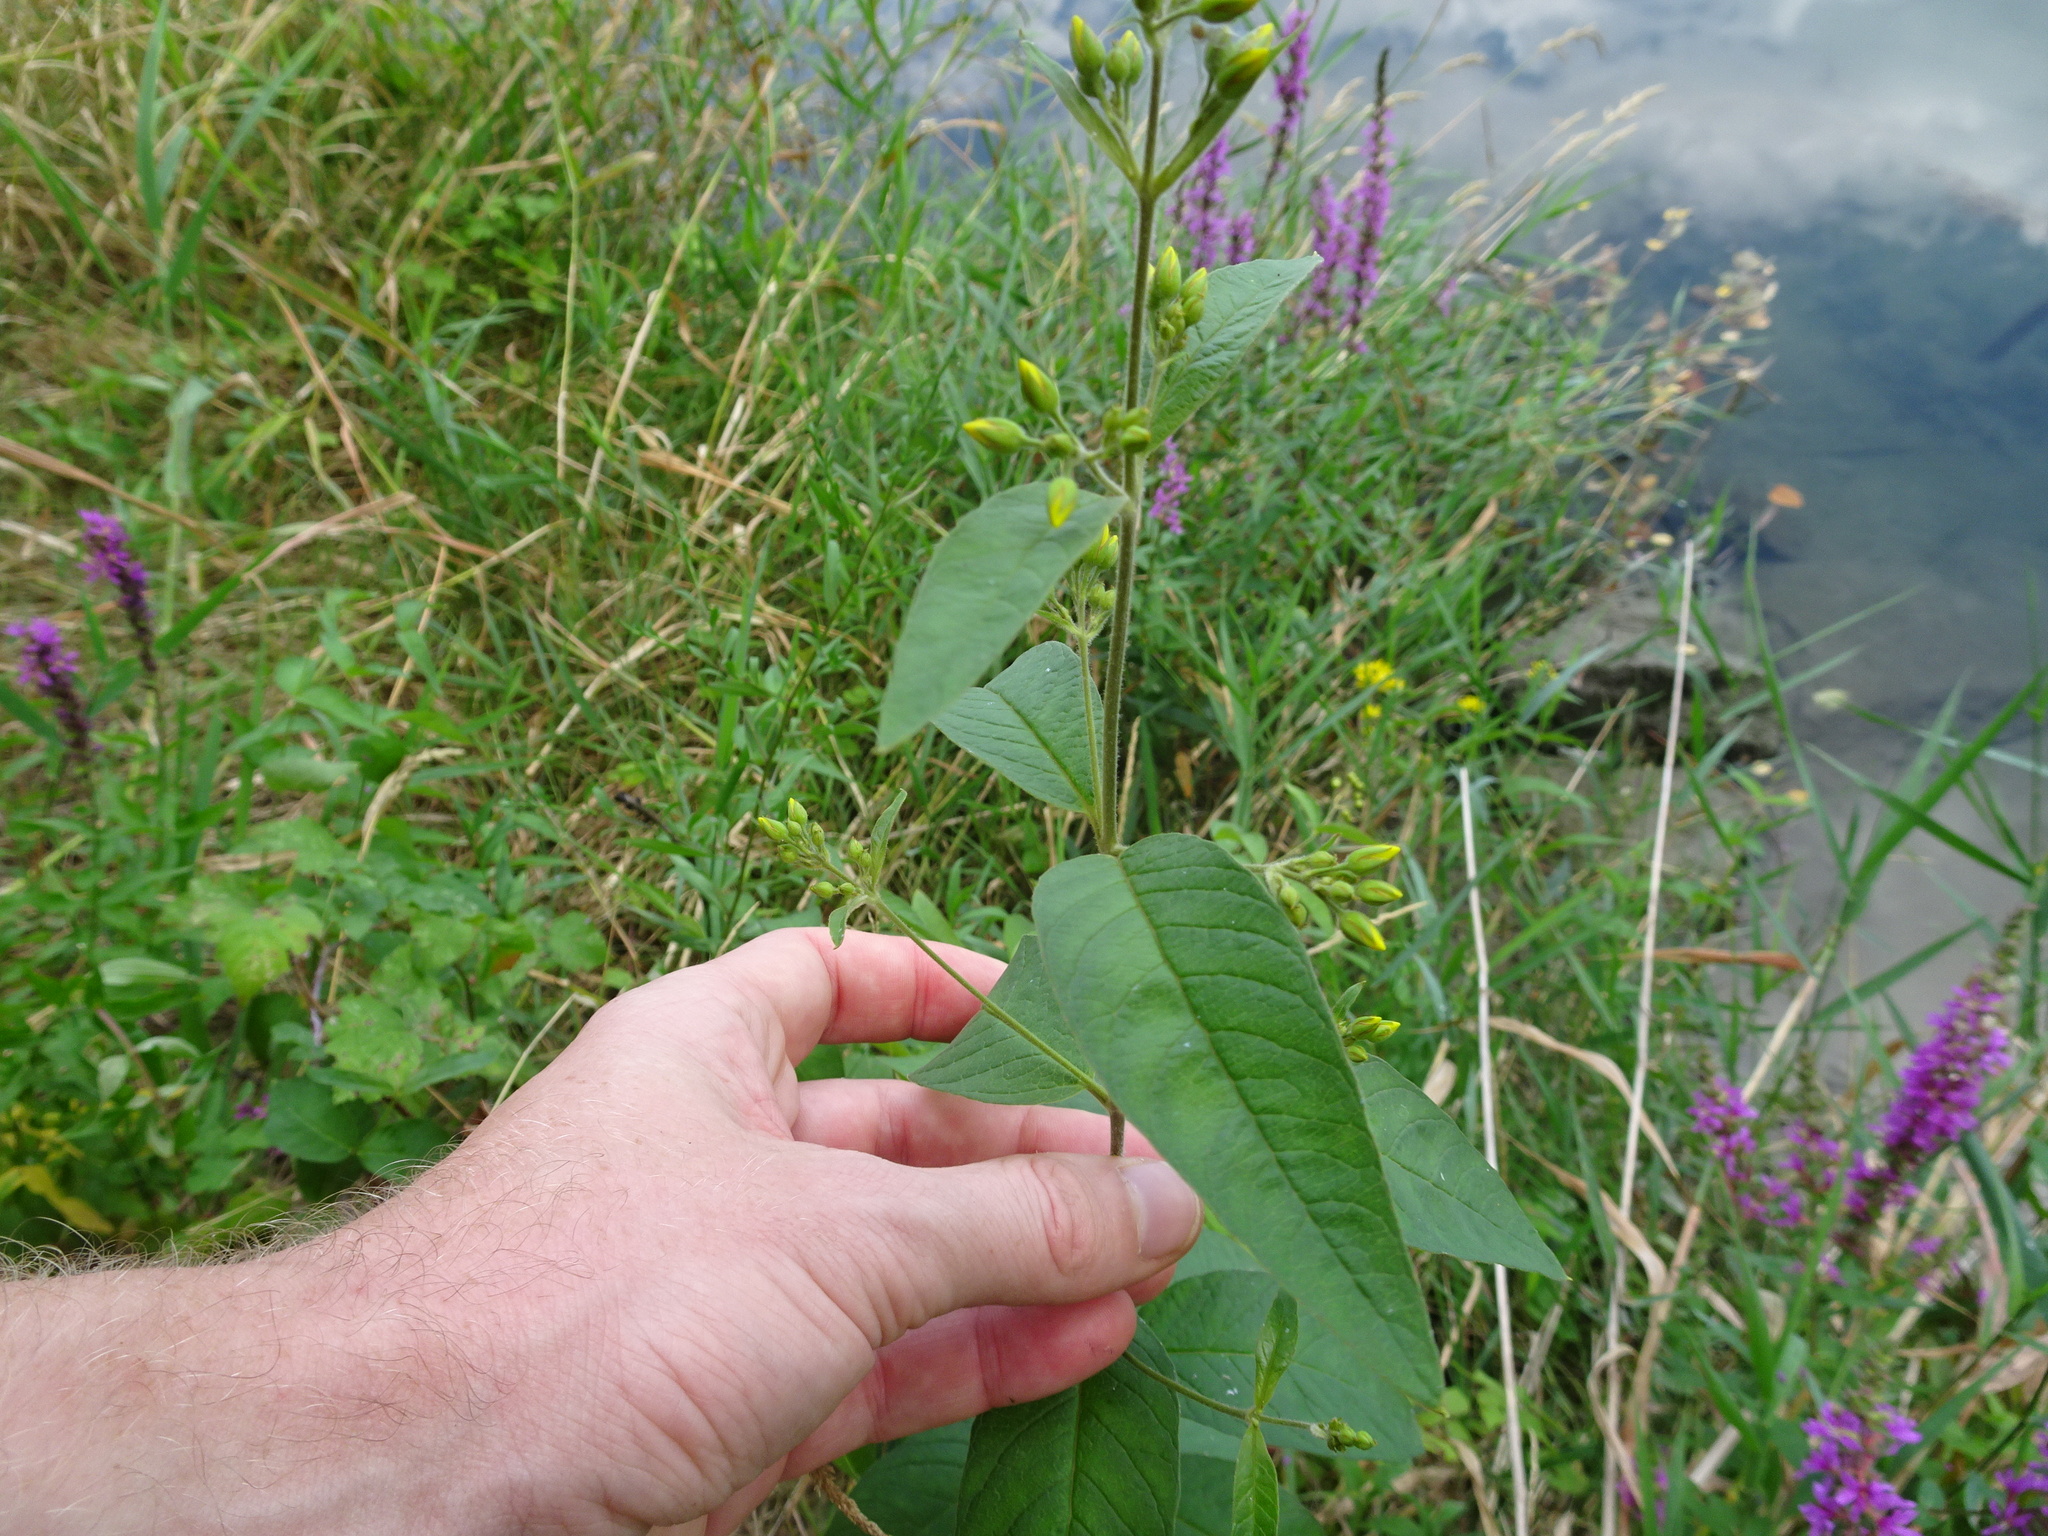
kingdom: Plantae
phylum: Tracheophyta
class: Magnoliopsida
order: Ericales
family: Primulaceae
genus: Lysimachia
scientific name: Lysimachia vulgaris
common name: Yellow loosestrife
